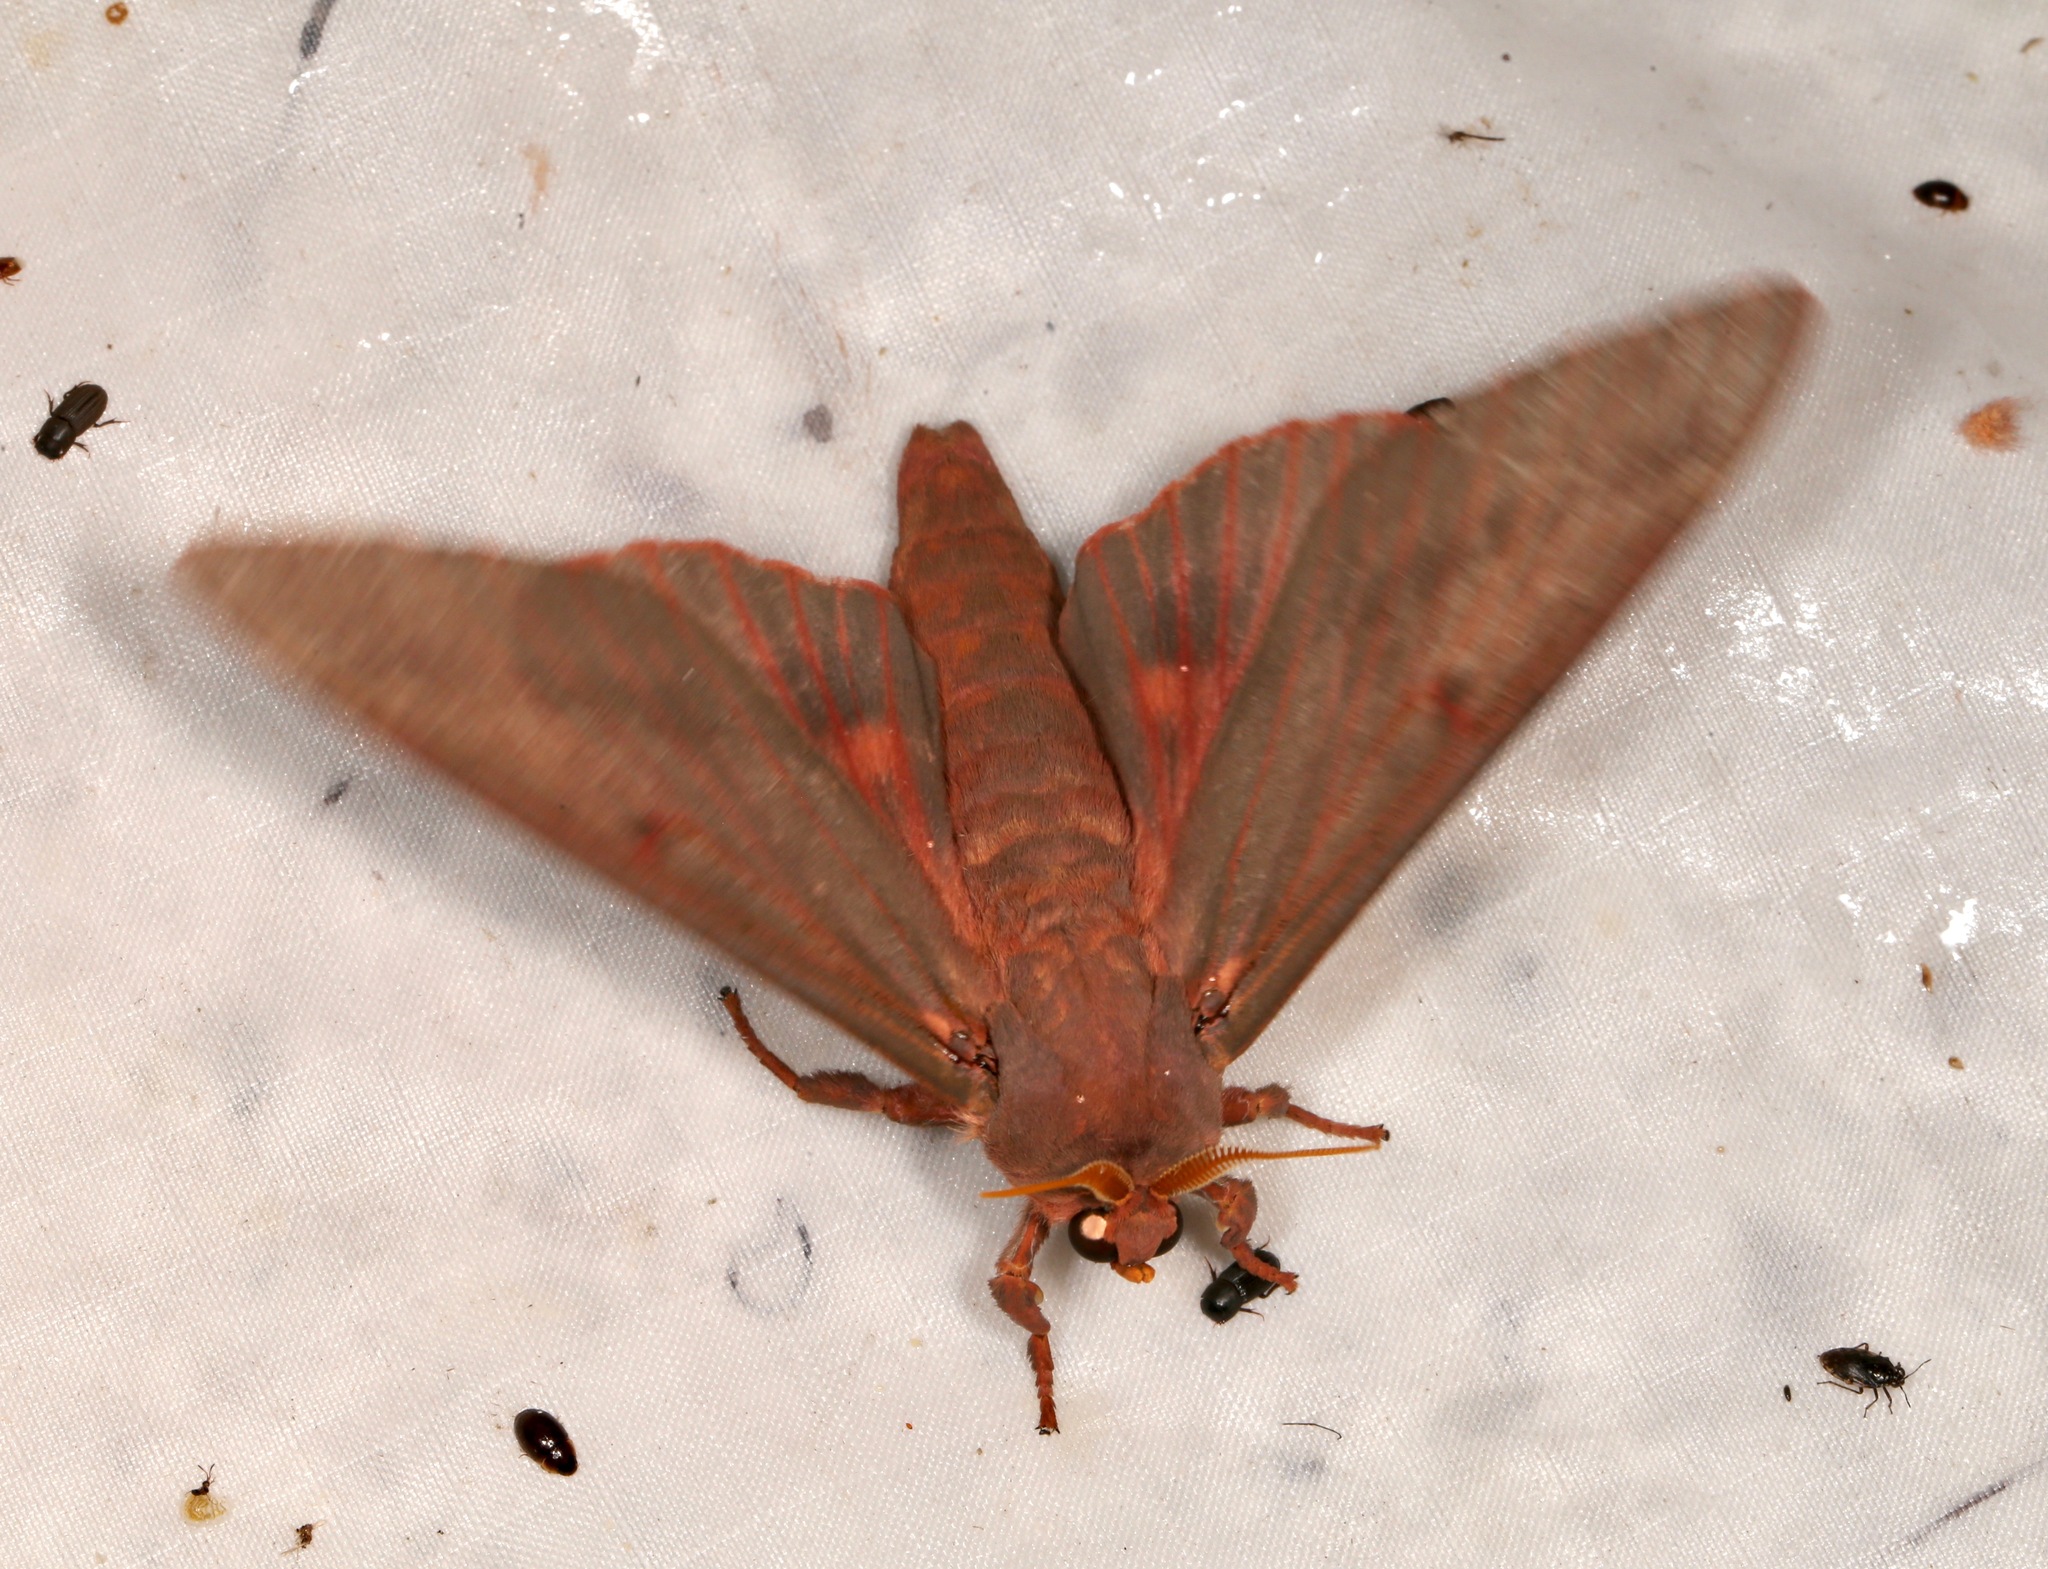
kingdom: Animalia
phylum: Arthropoda
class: Insecta
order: Lepidoptera
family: Saturniidae
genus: Citheronia
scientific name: Citheronia sepulcralis
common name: Pine-devil moth
